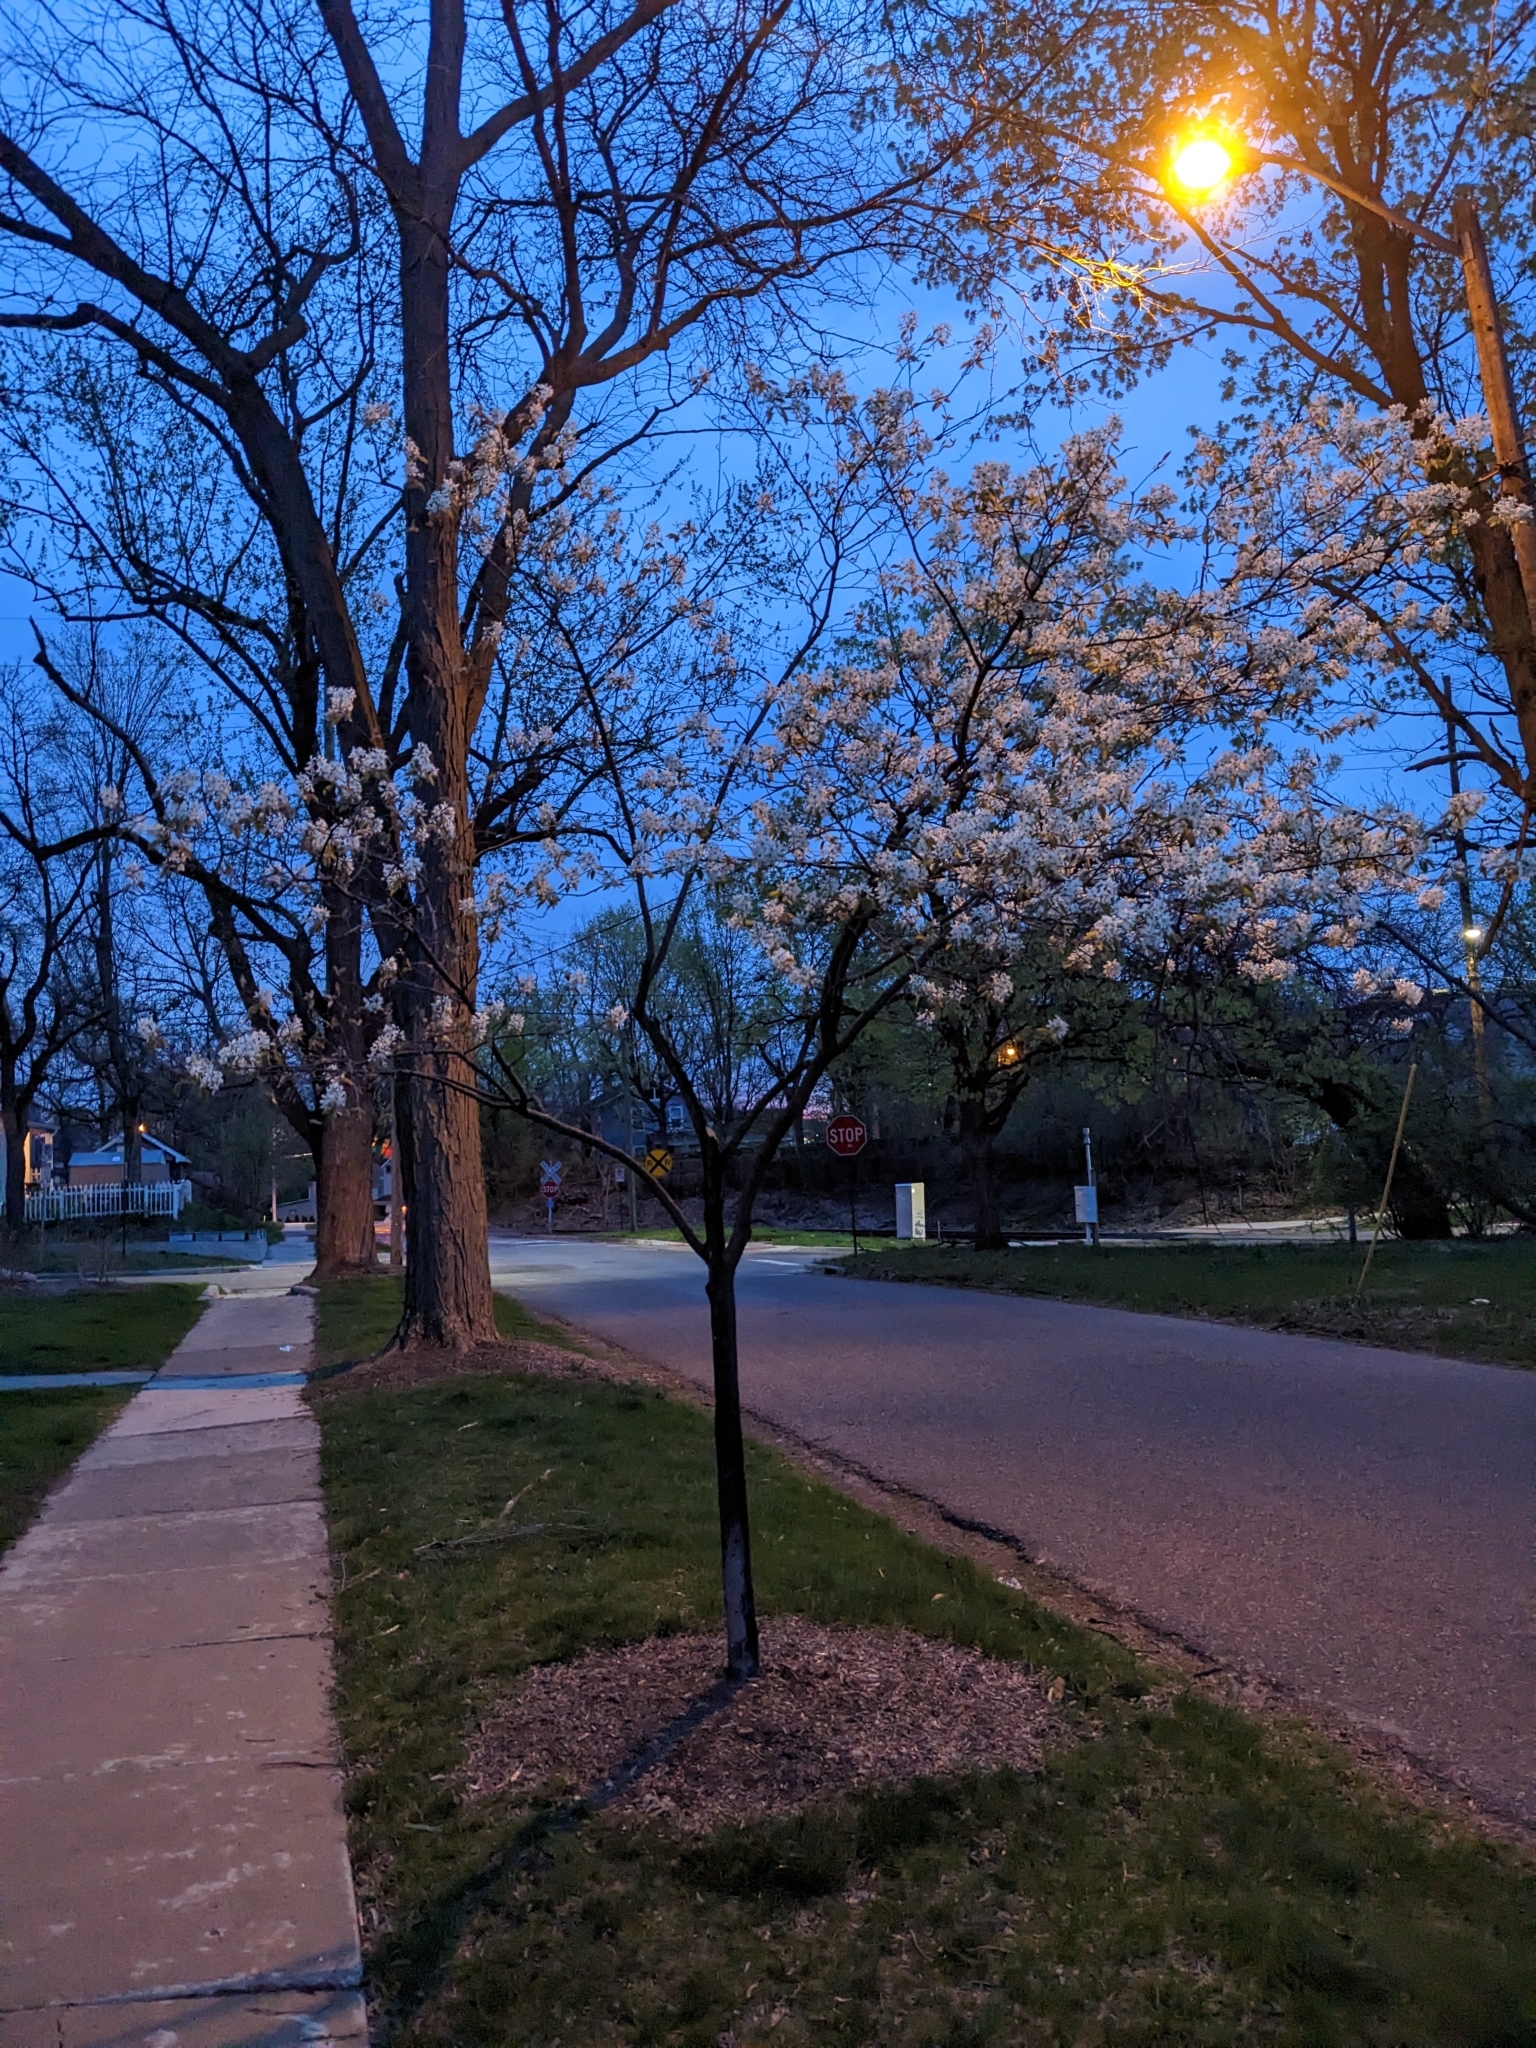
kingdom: Plantae
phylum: Tracheophyta
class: Magnoliopsida
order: Rosales
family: Rosaceae
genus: Amelanchier
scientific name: Amelanchier arborea
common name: Downy serviceberry
